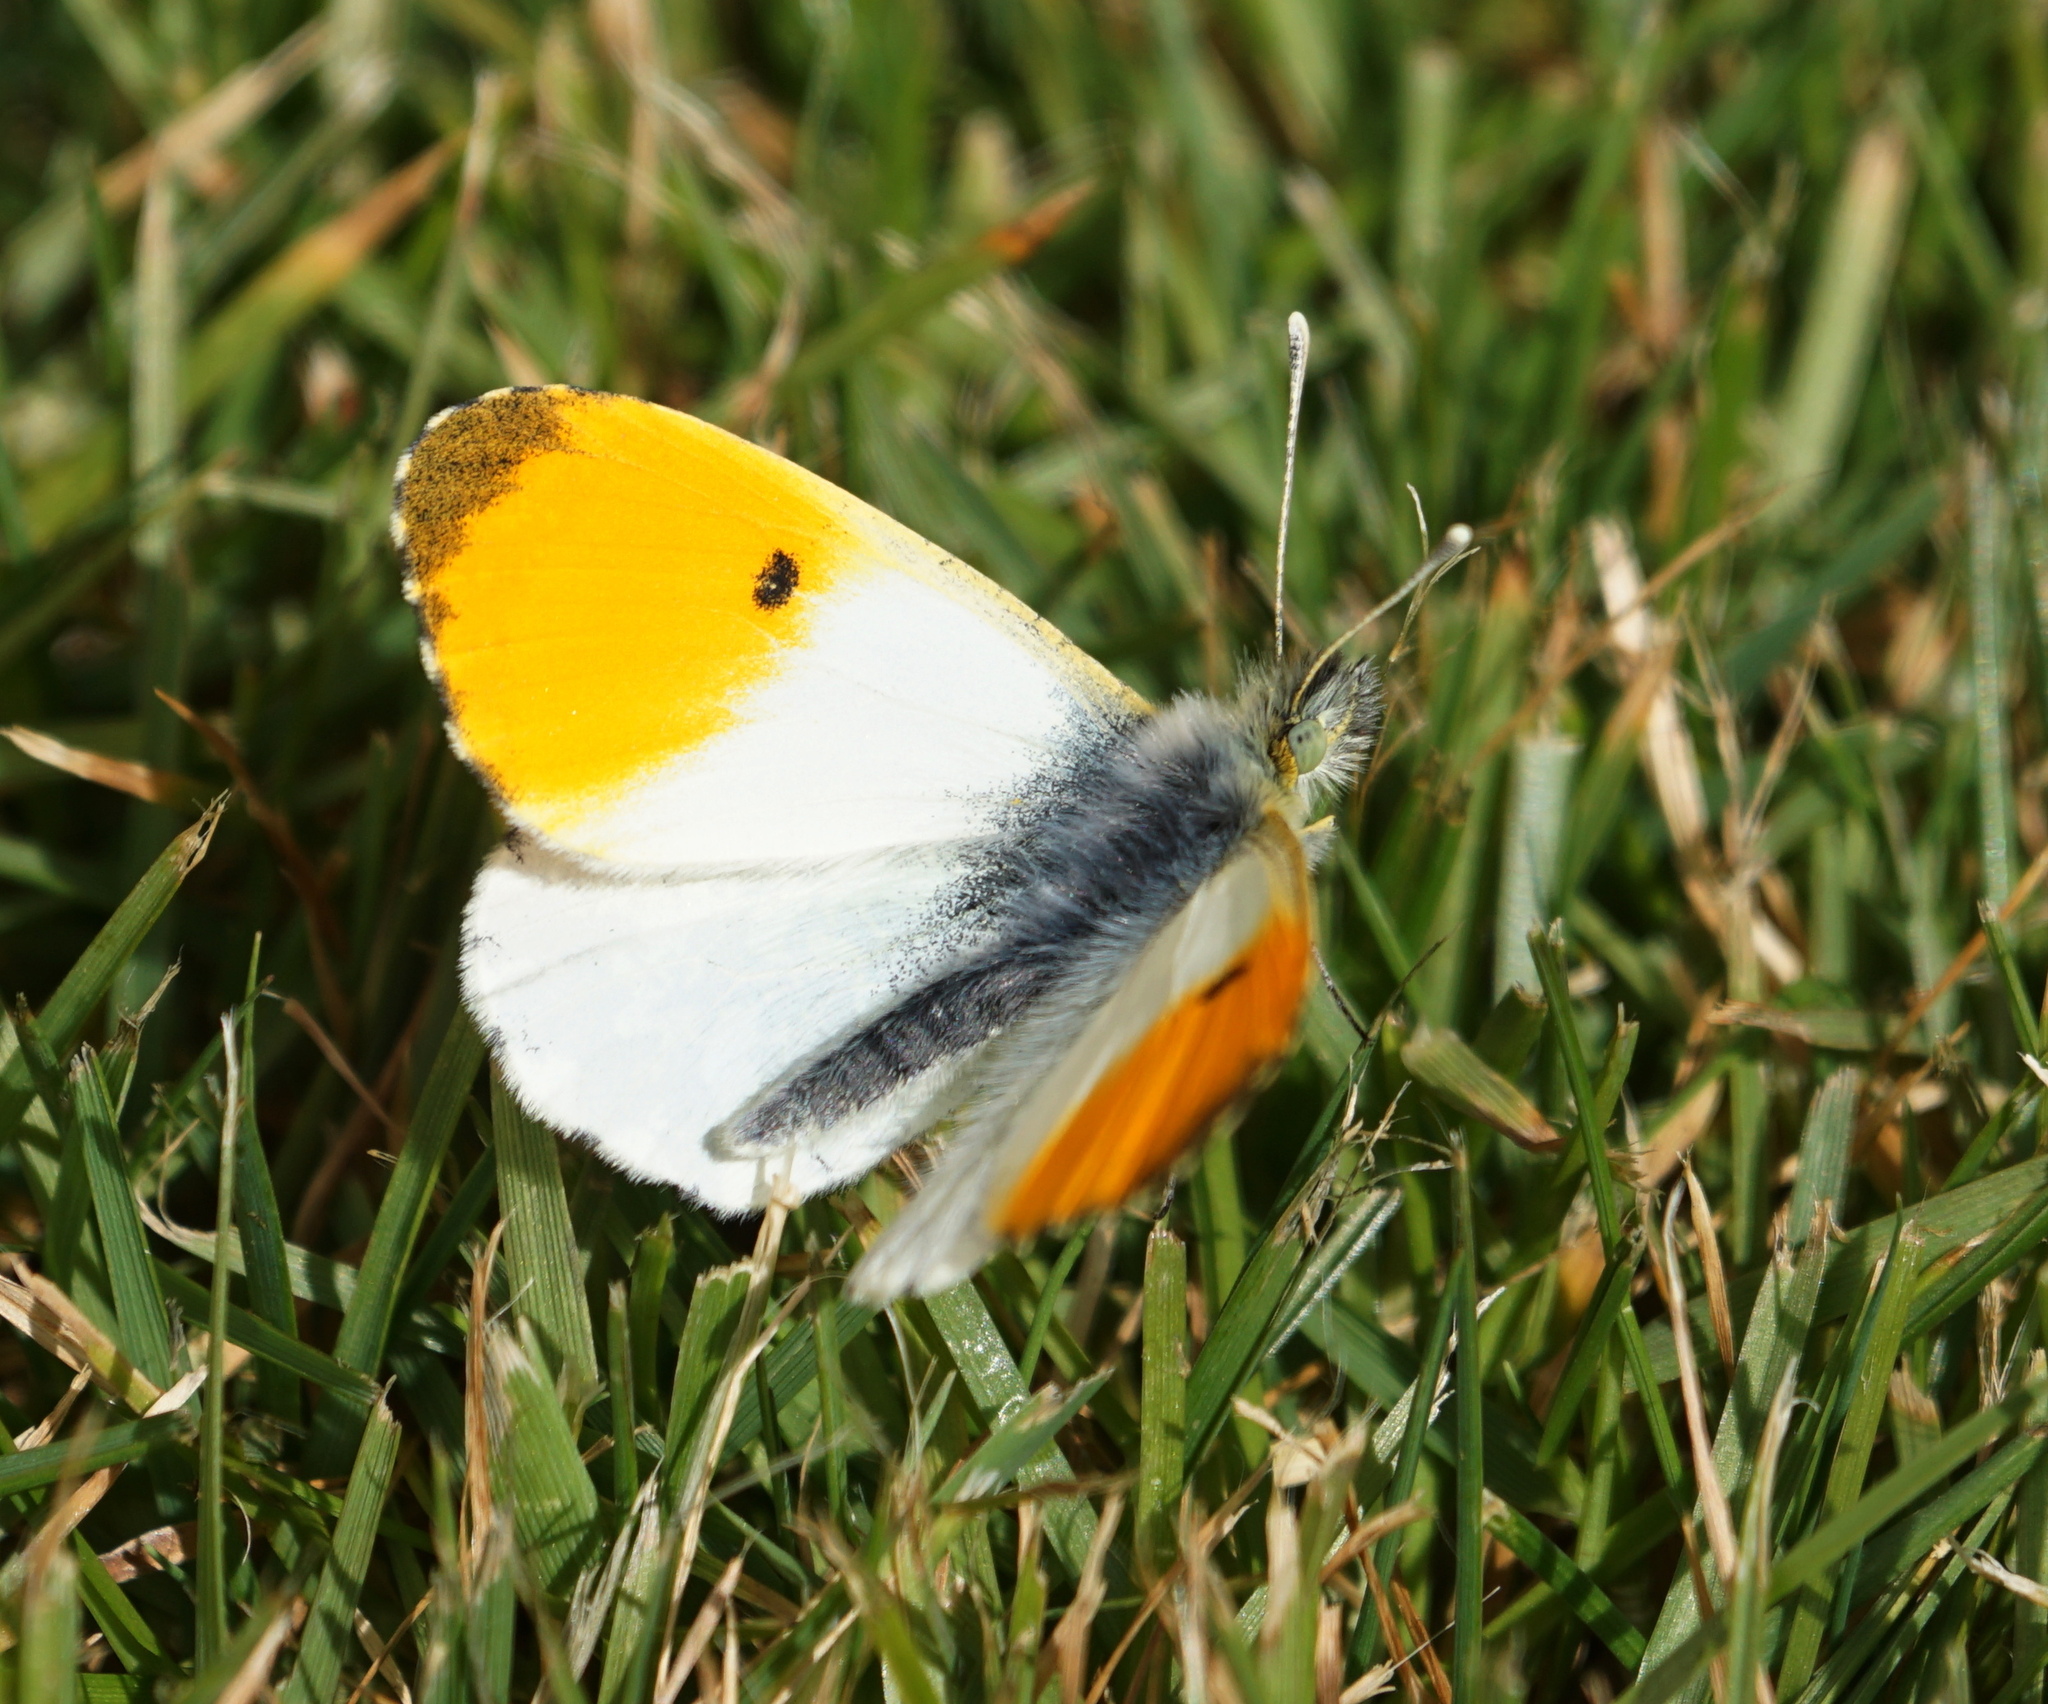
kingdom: Animalia
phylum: Arthropoda
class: Insecta
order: Lepidoptera
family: Pieridae
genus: Anthocharis
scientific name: Anthocharis cardamines
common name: Orange-tip
